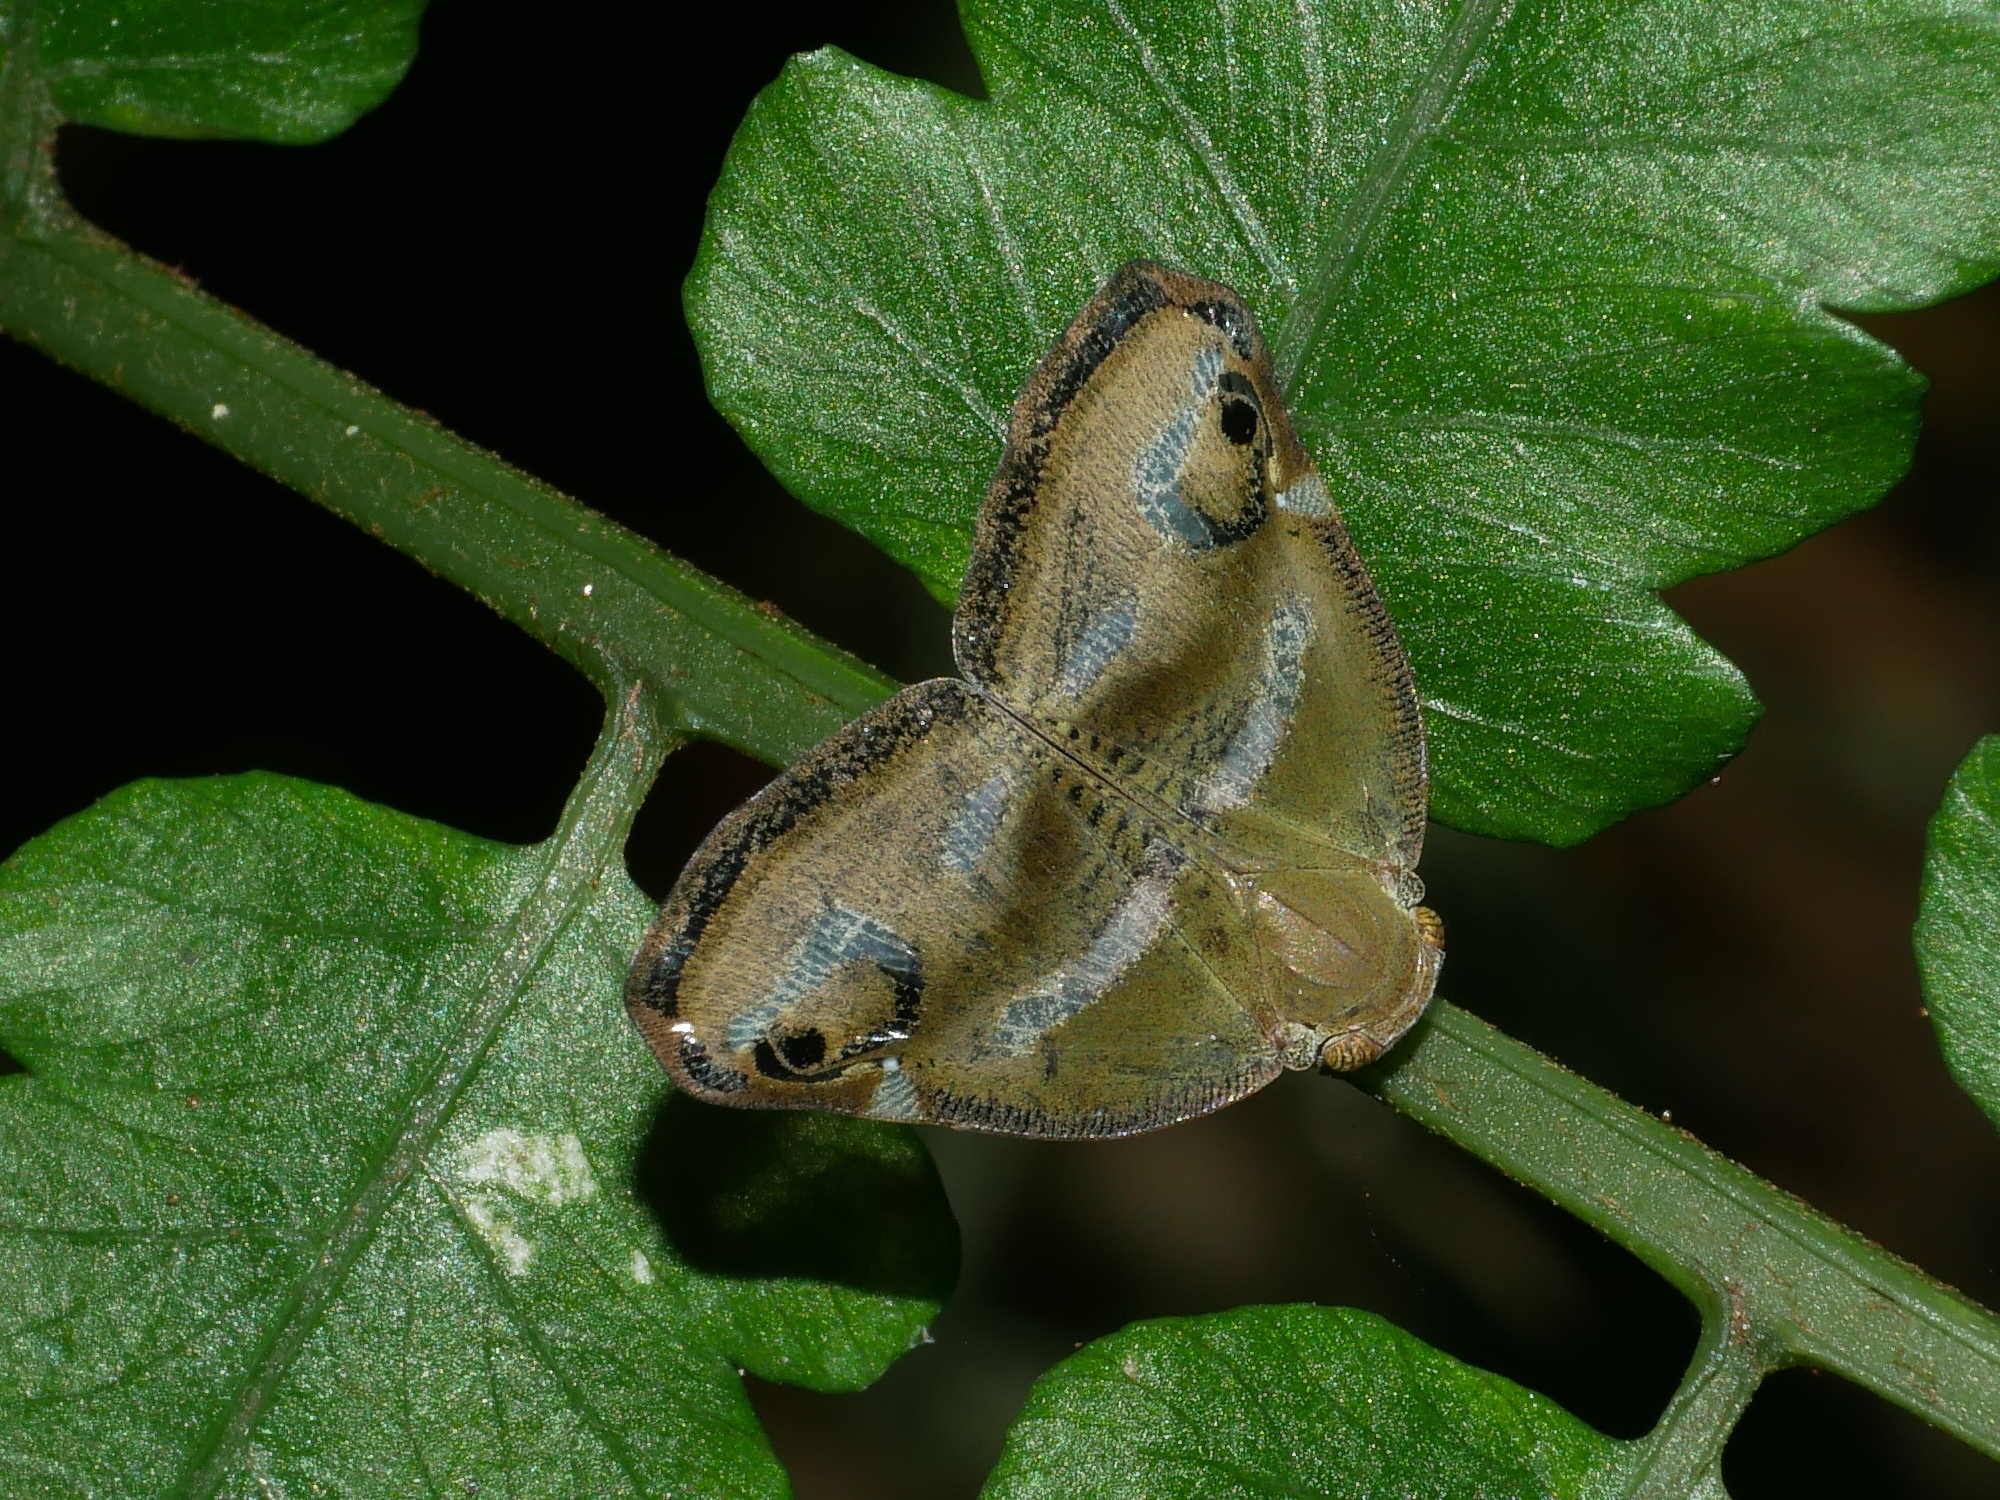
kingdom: Animalia
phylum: Arthropoda
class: Insecta
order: Hemiptera
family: Ricaniidae
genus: Ricania
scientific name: Ricania simulans
